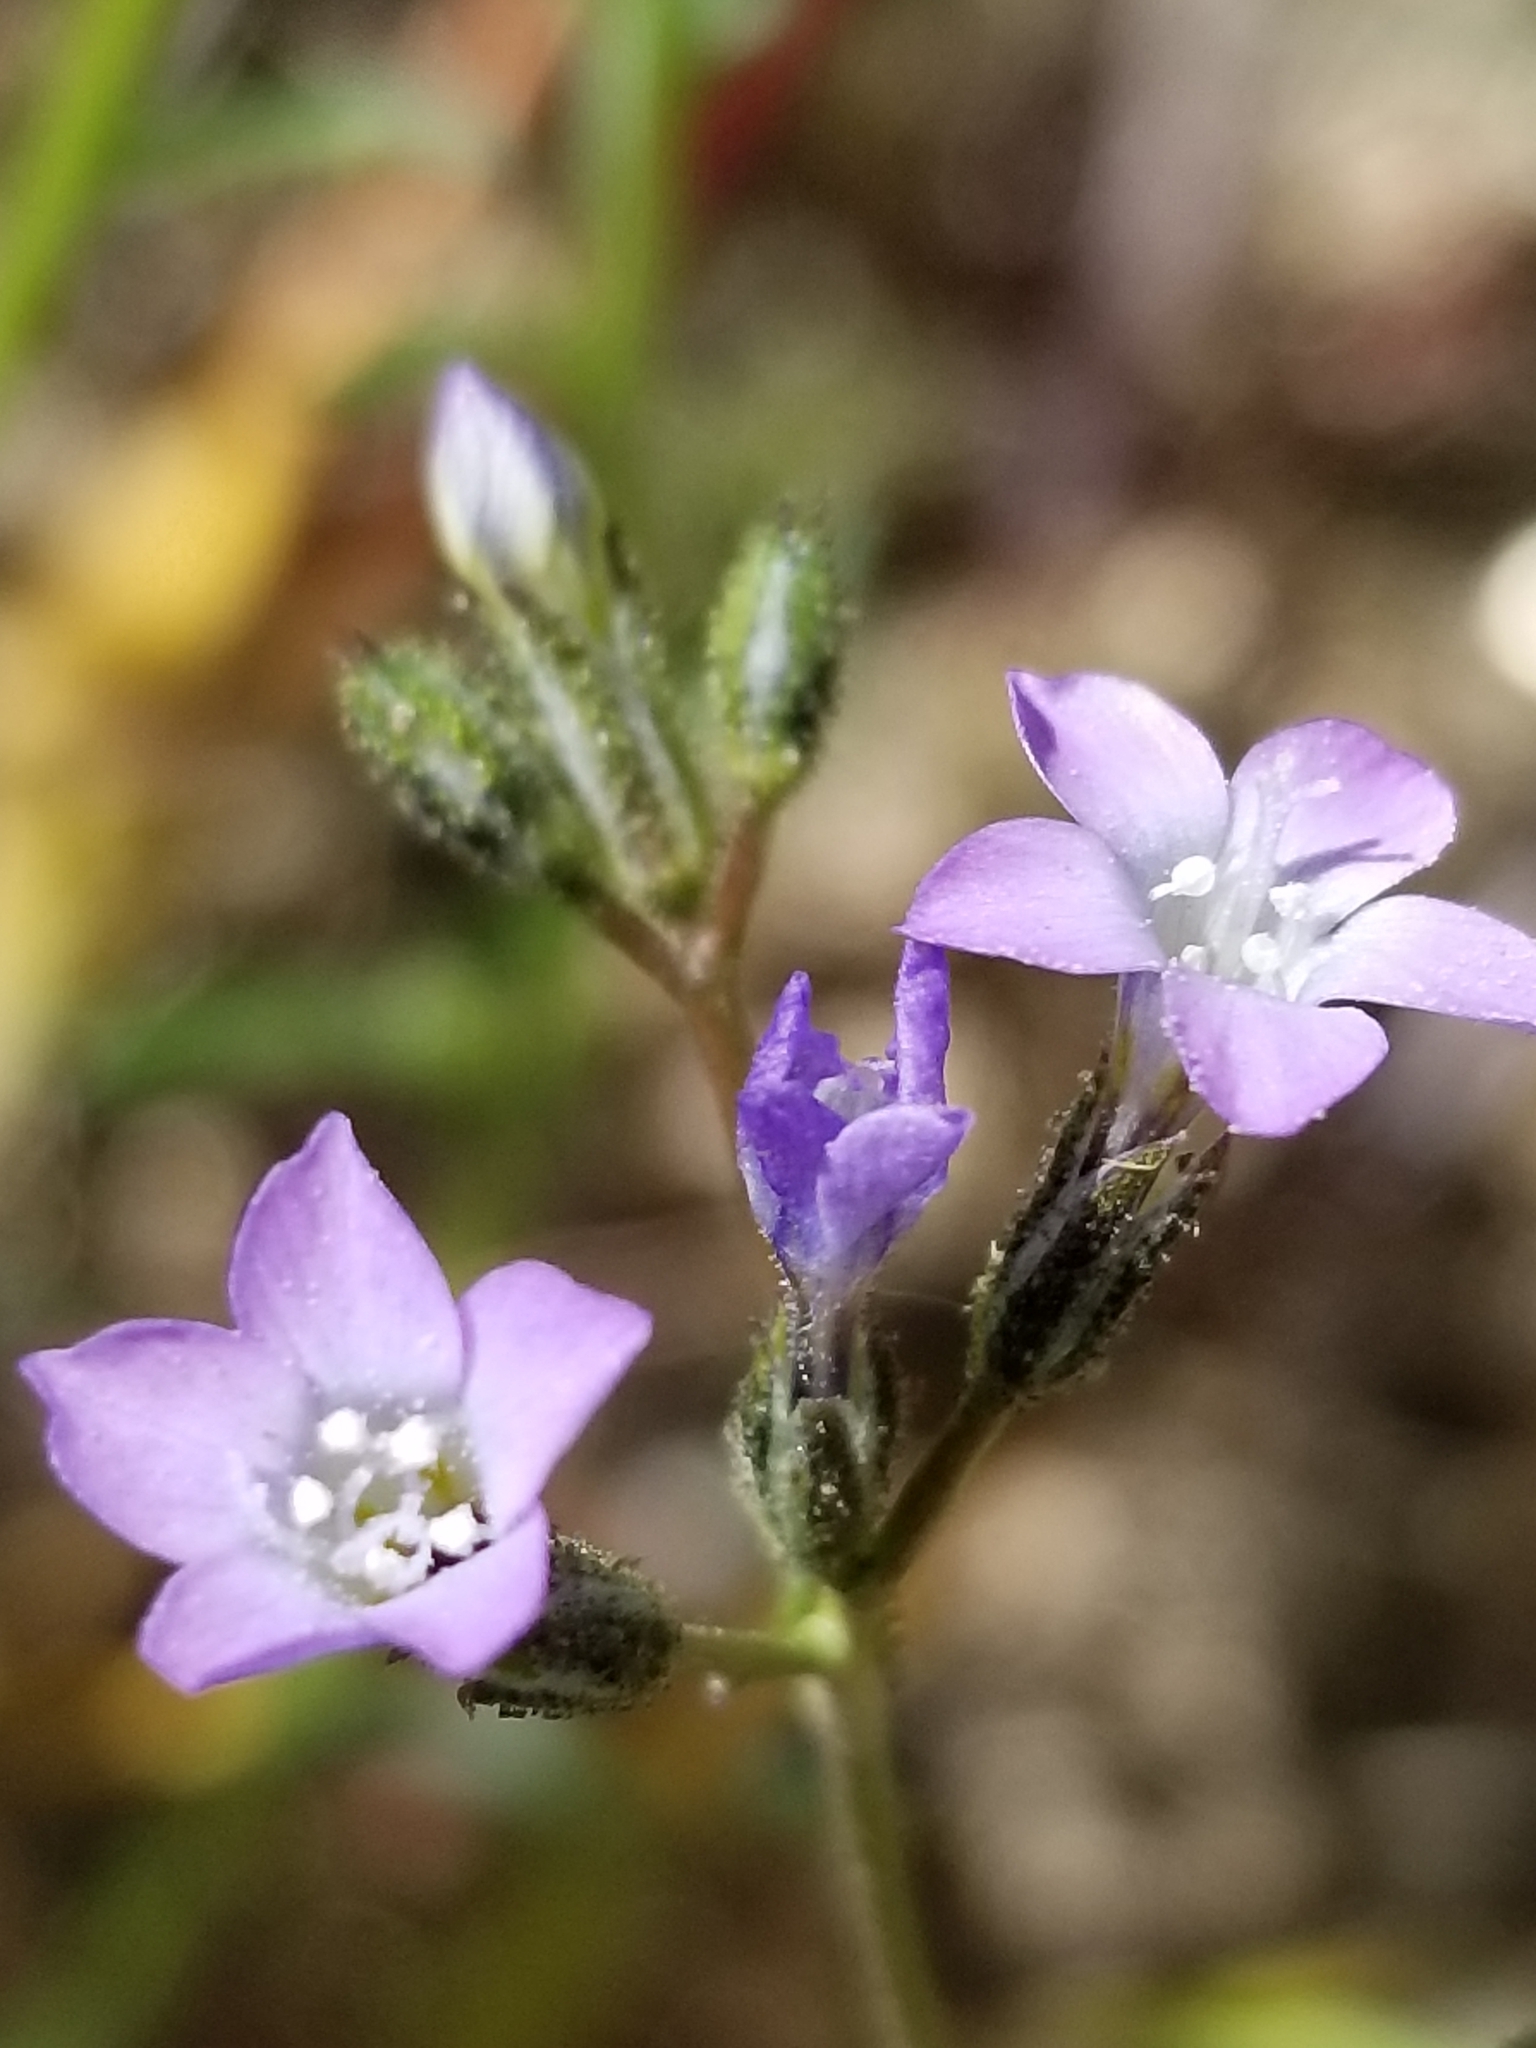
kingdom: Plantae
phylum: Tracheophyta
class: Magnoliopsida
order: Ericales
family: Polemoniaceae
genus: Gilia
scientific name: Gilia sinuata
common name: Rosy gilia
